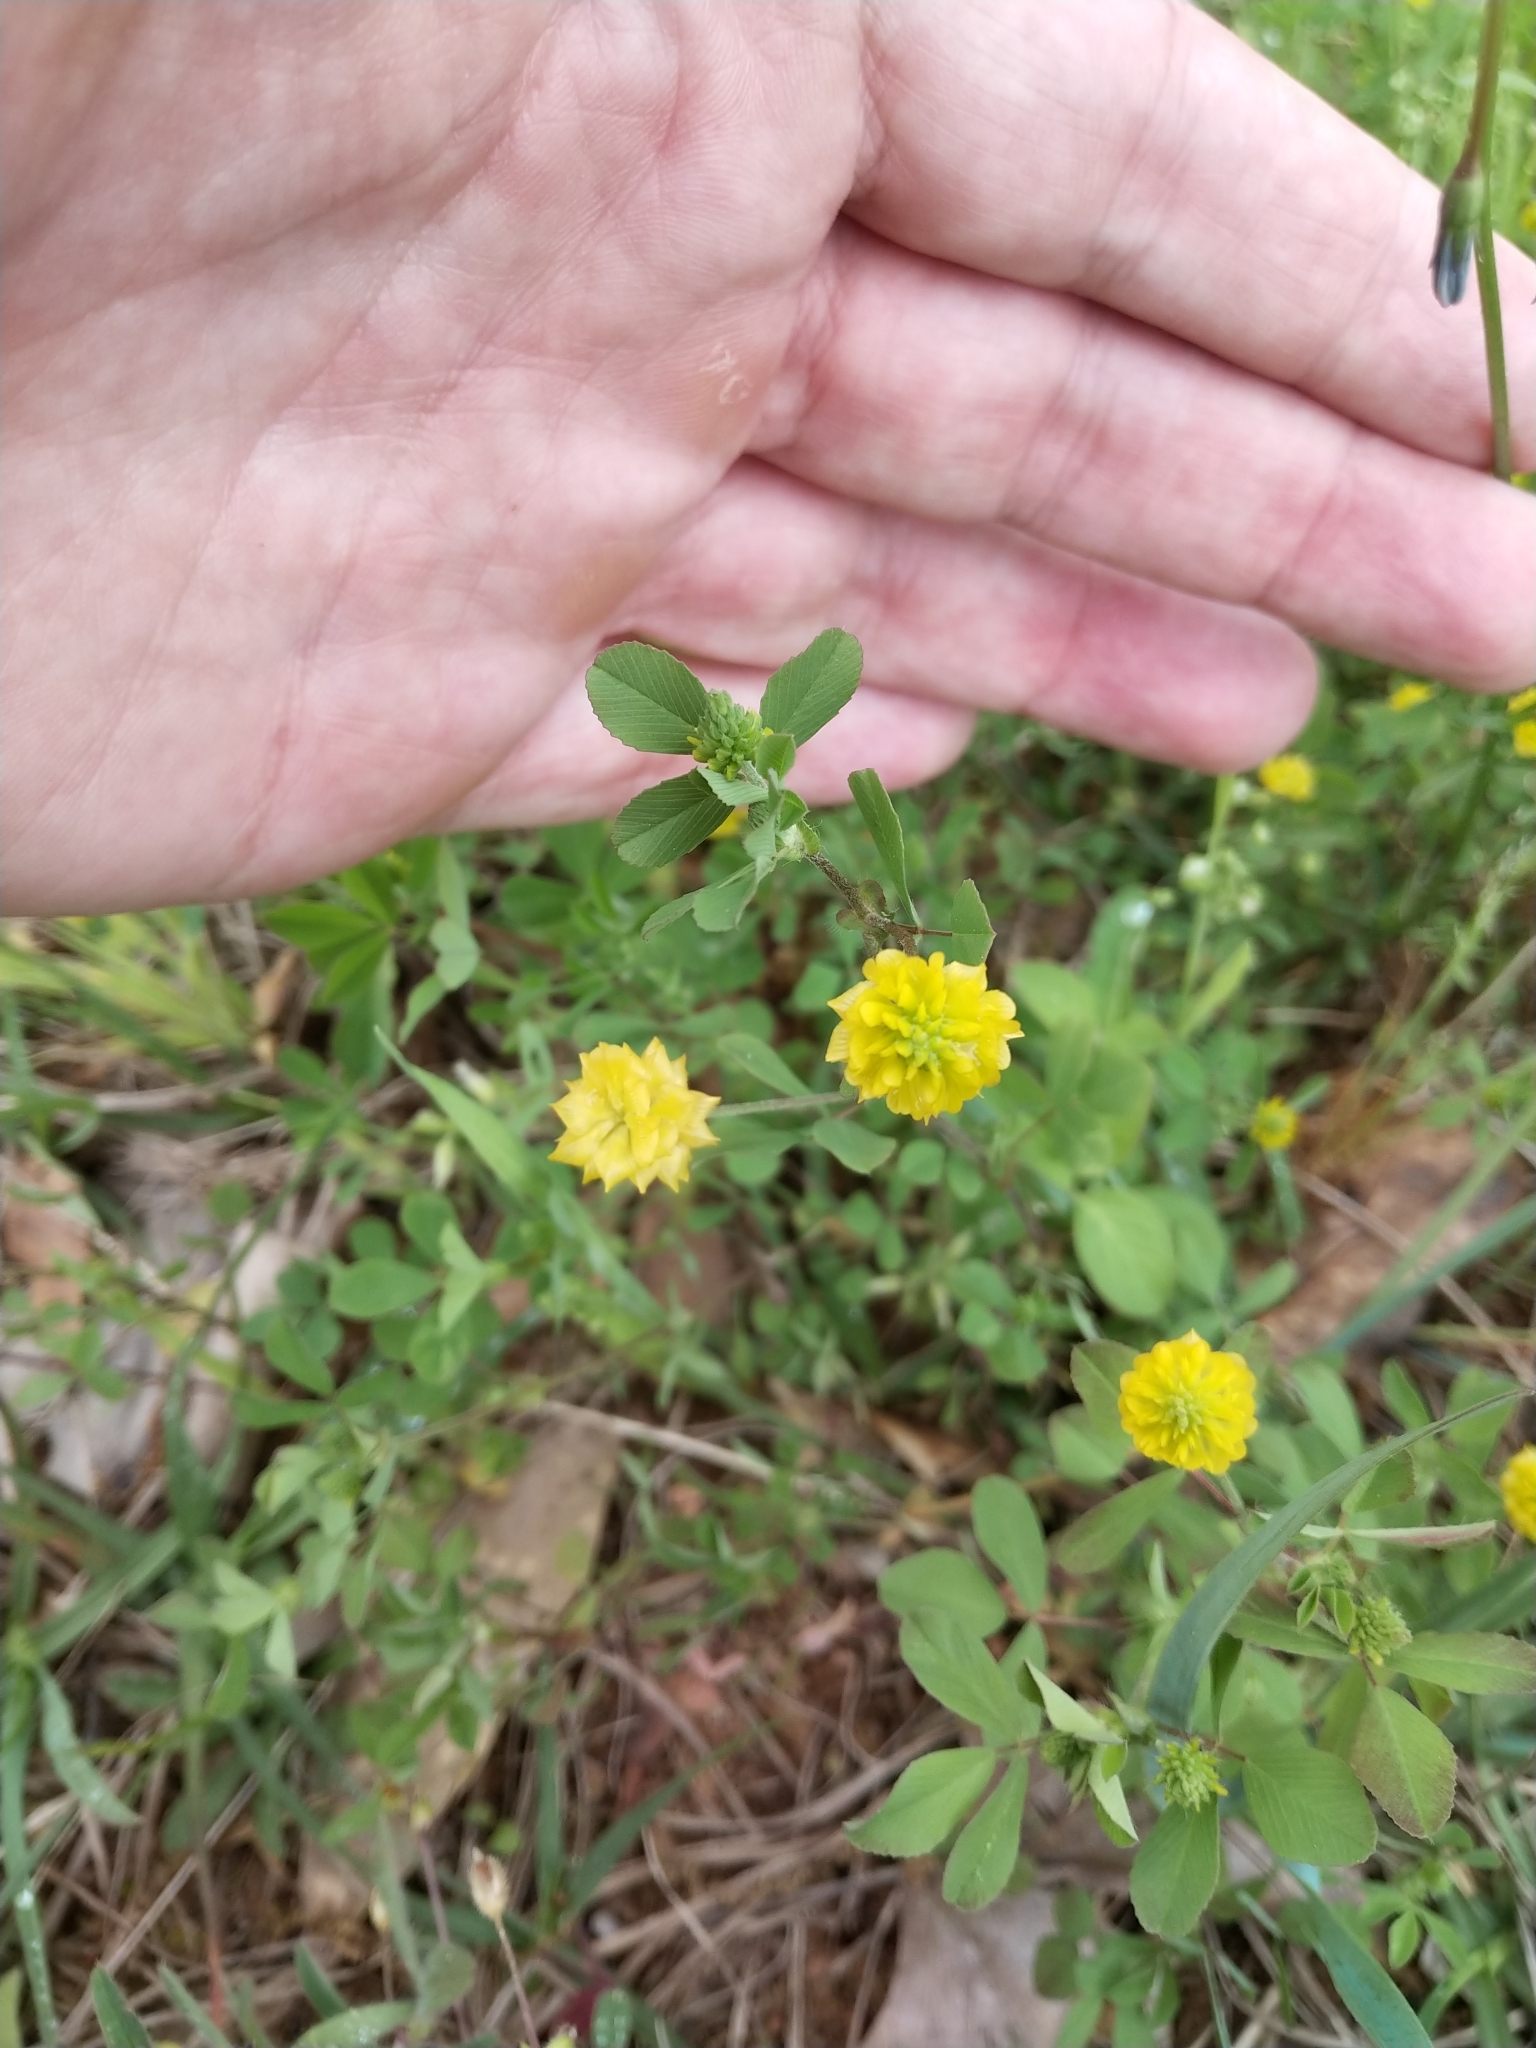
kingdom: Plantae
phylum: Tracheophyta
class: Magnoliopsida
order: Fabales
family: Fabaceae
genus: Trifolium
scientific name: Trifolium campestre
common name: Field clover
